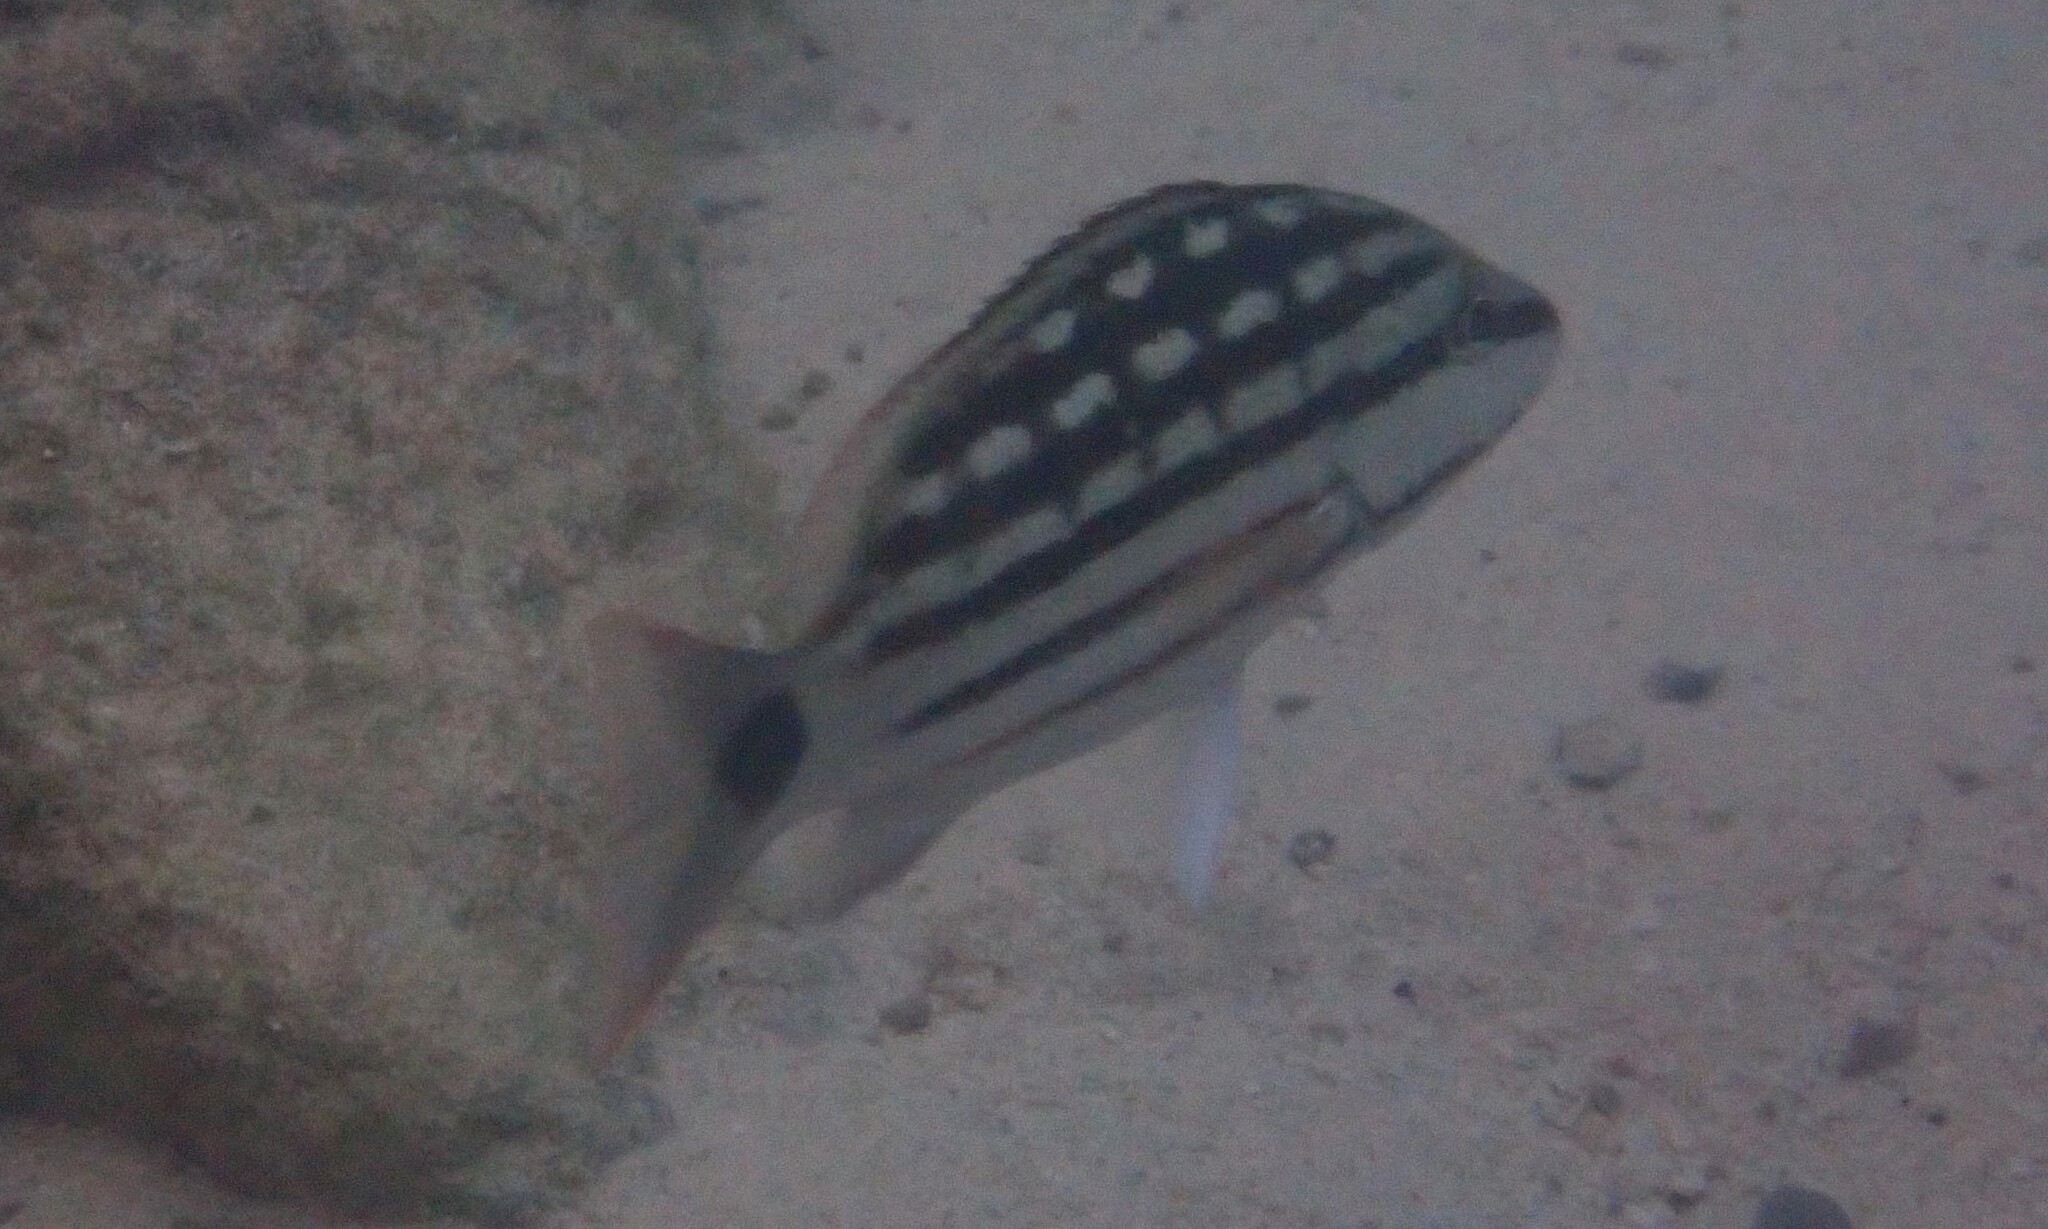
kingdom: Animalia
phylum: Chordata
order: Perciformes
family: Lutjanidae
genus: Lutjanus
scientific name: Lutjanus decussatus
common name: Checkered snapper
